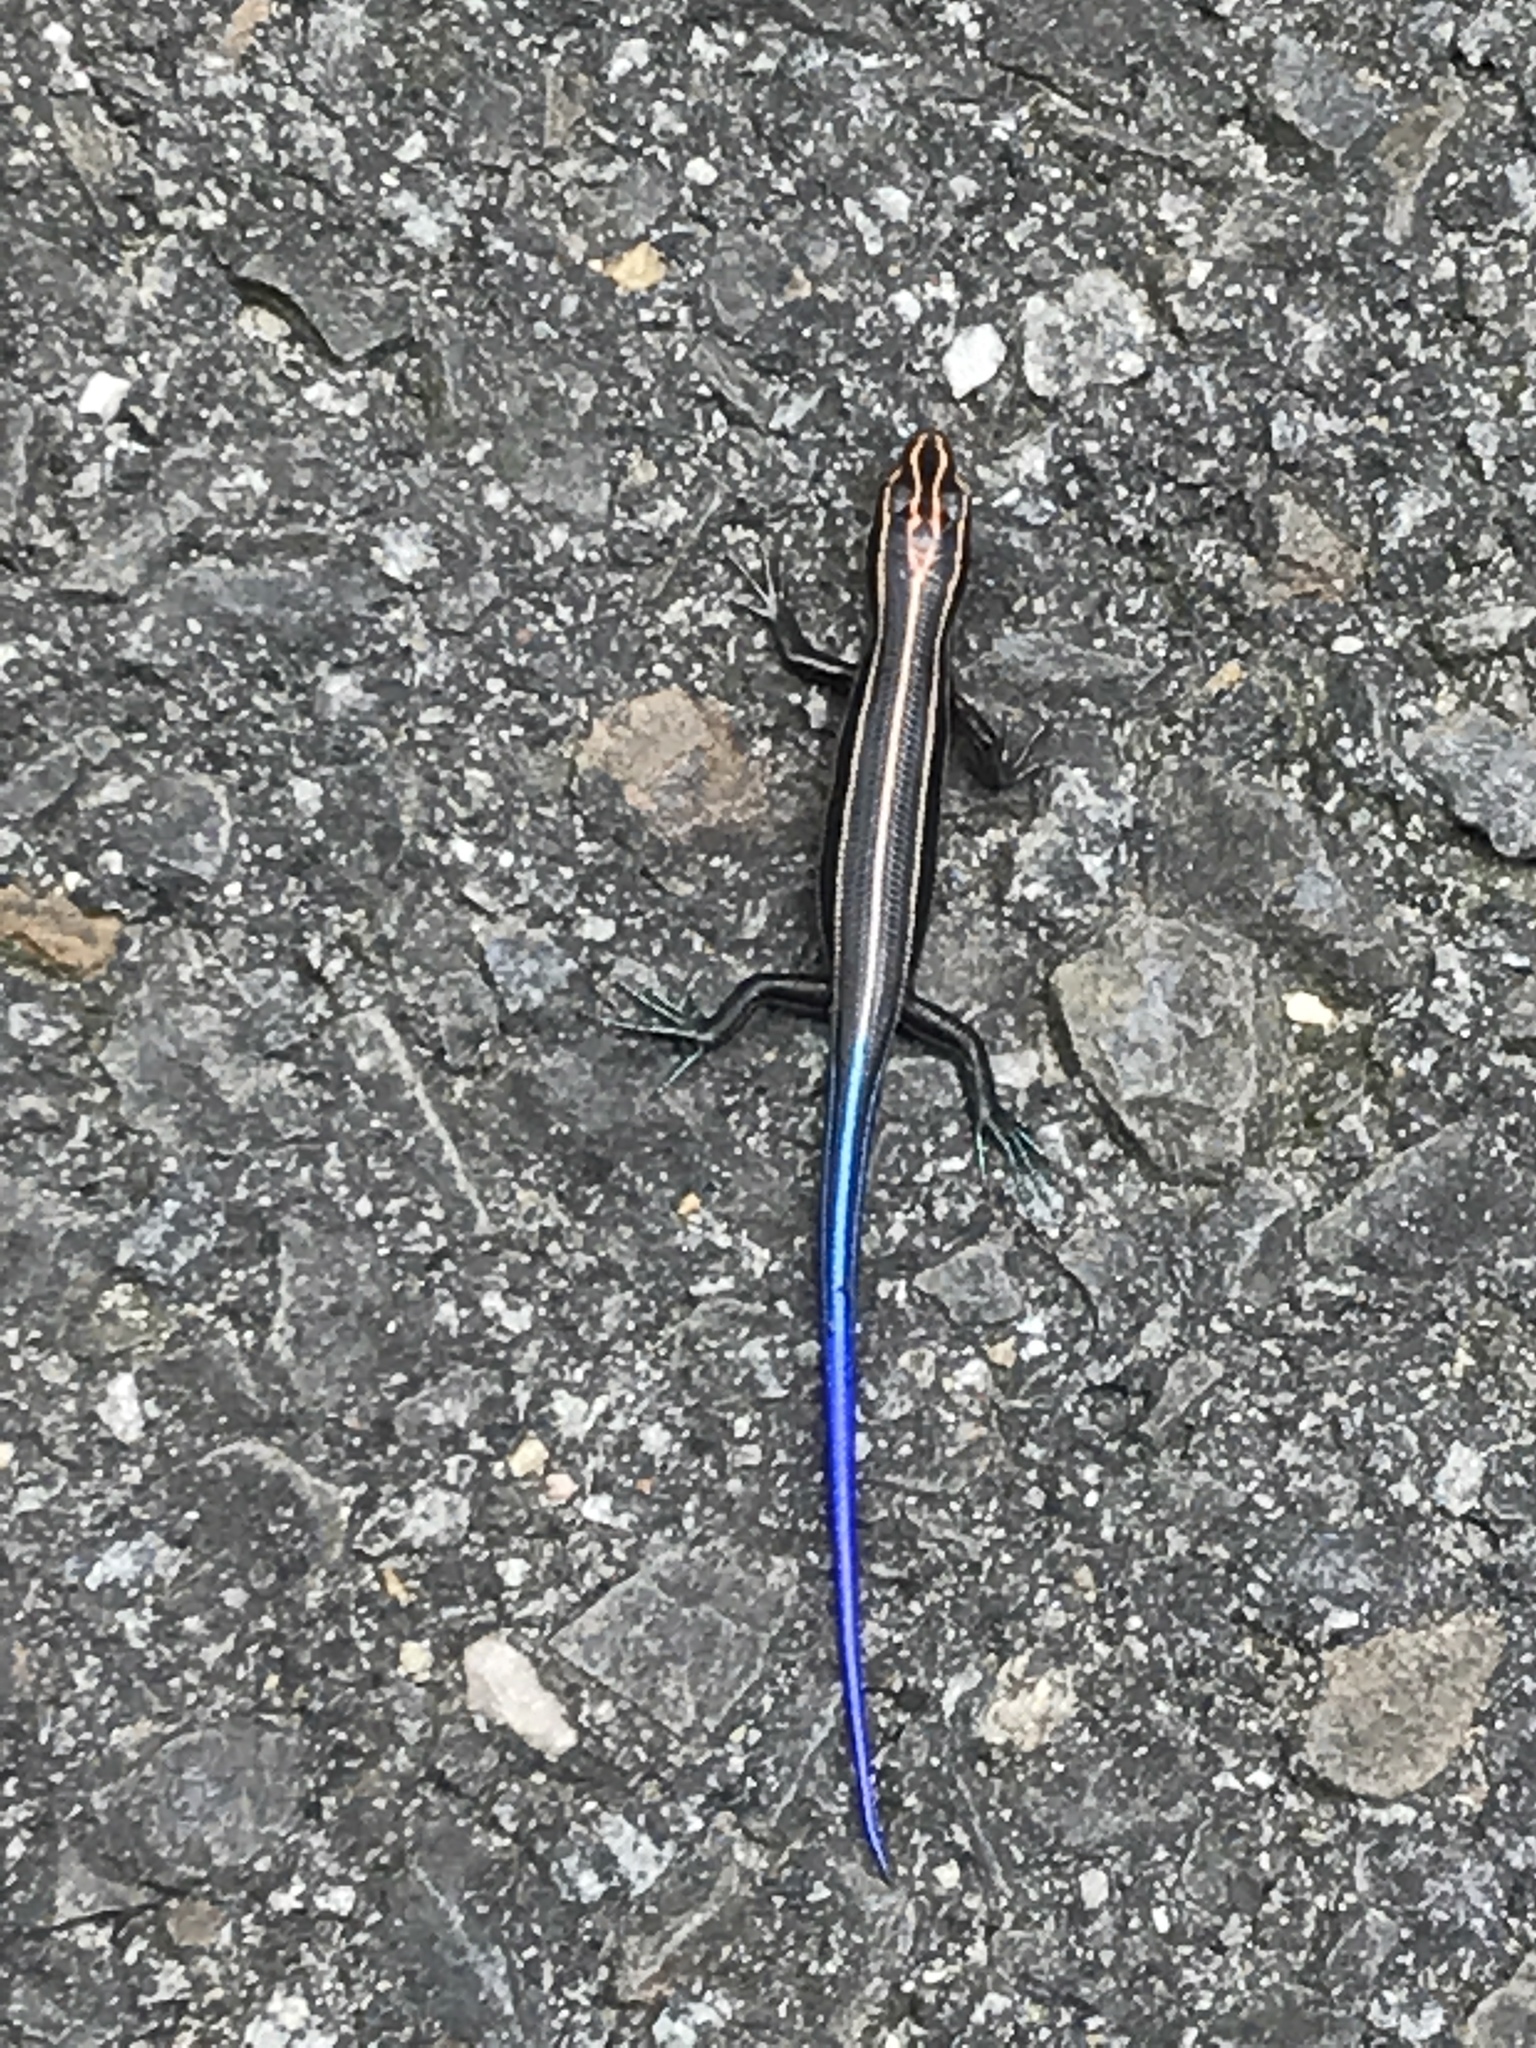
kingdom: Animalia
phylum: Chordata
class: Squamata
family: Scincidae
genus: Plestiodon
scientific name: Plestiodon fasciatus
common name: Five-lined skink
